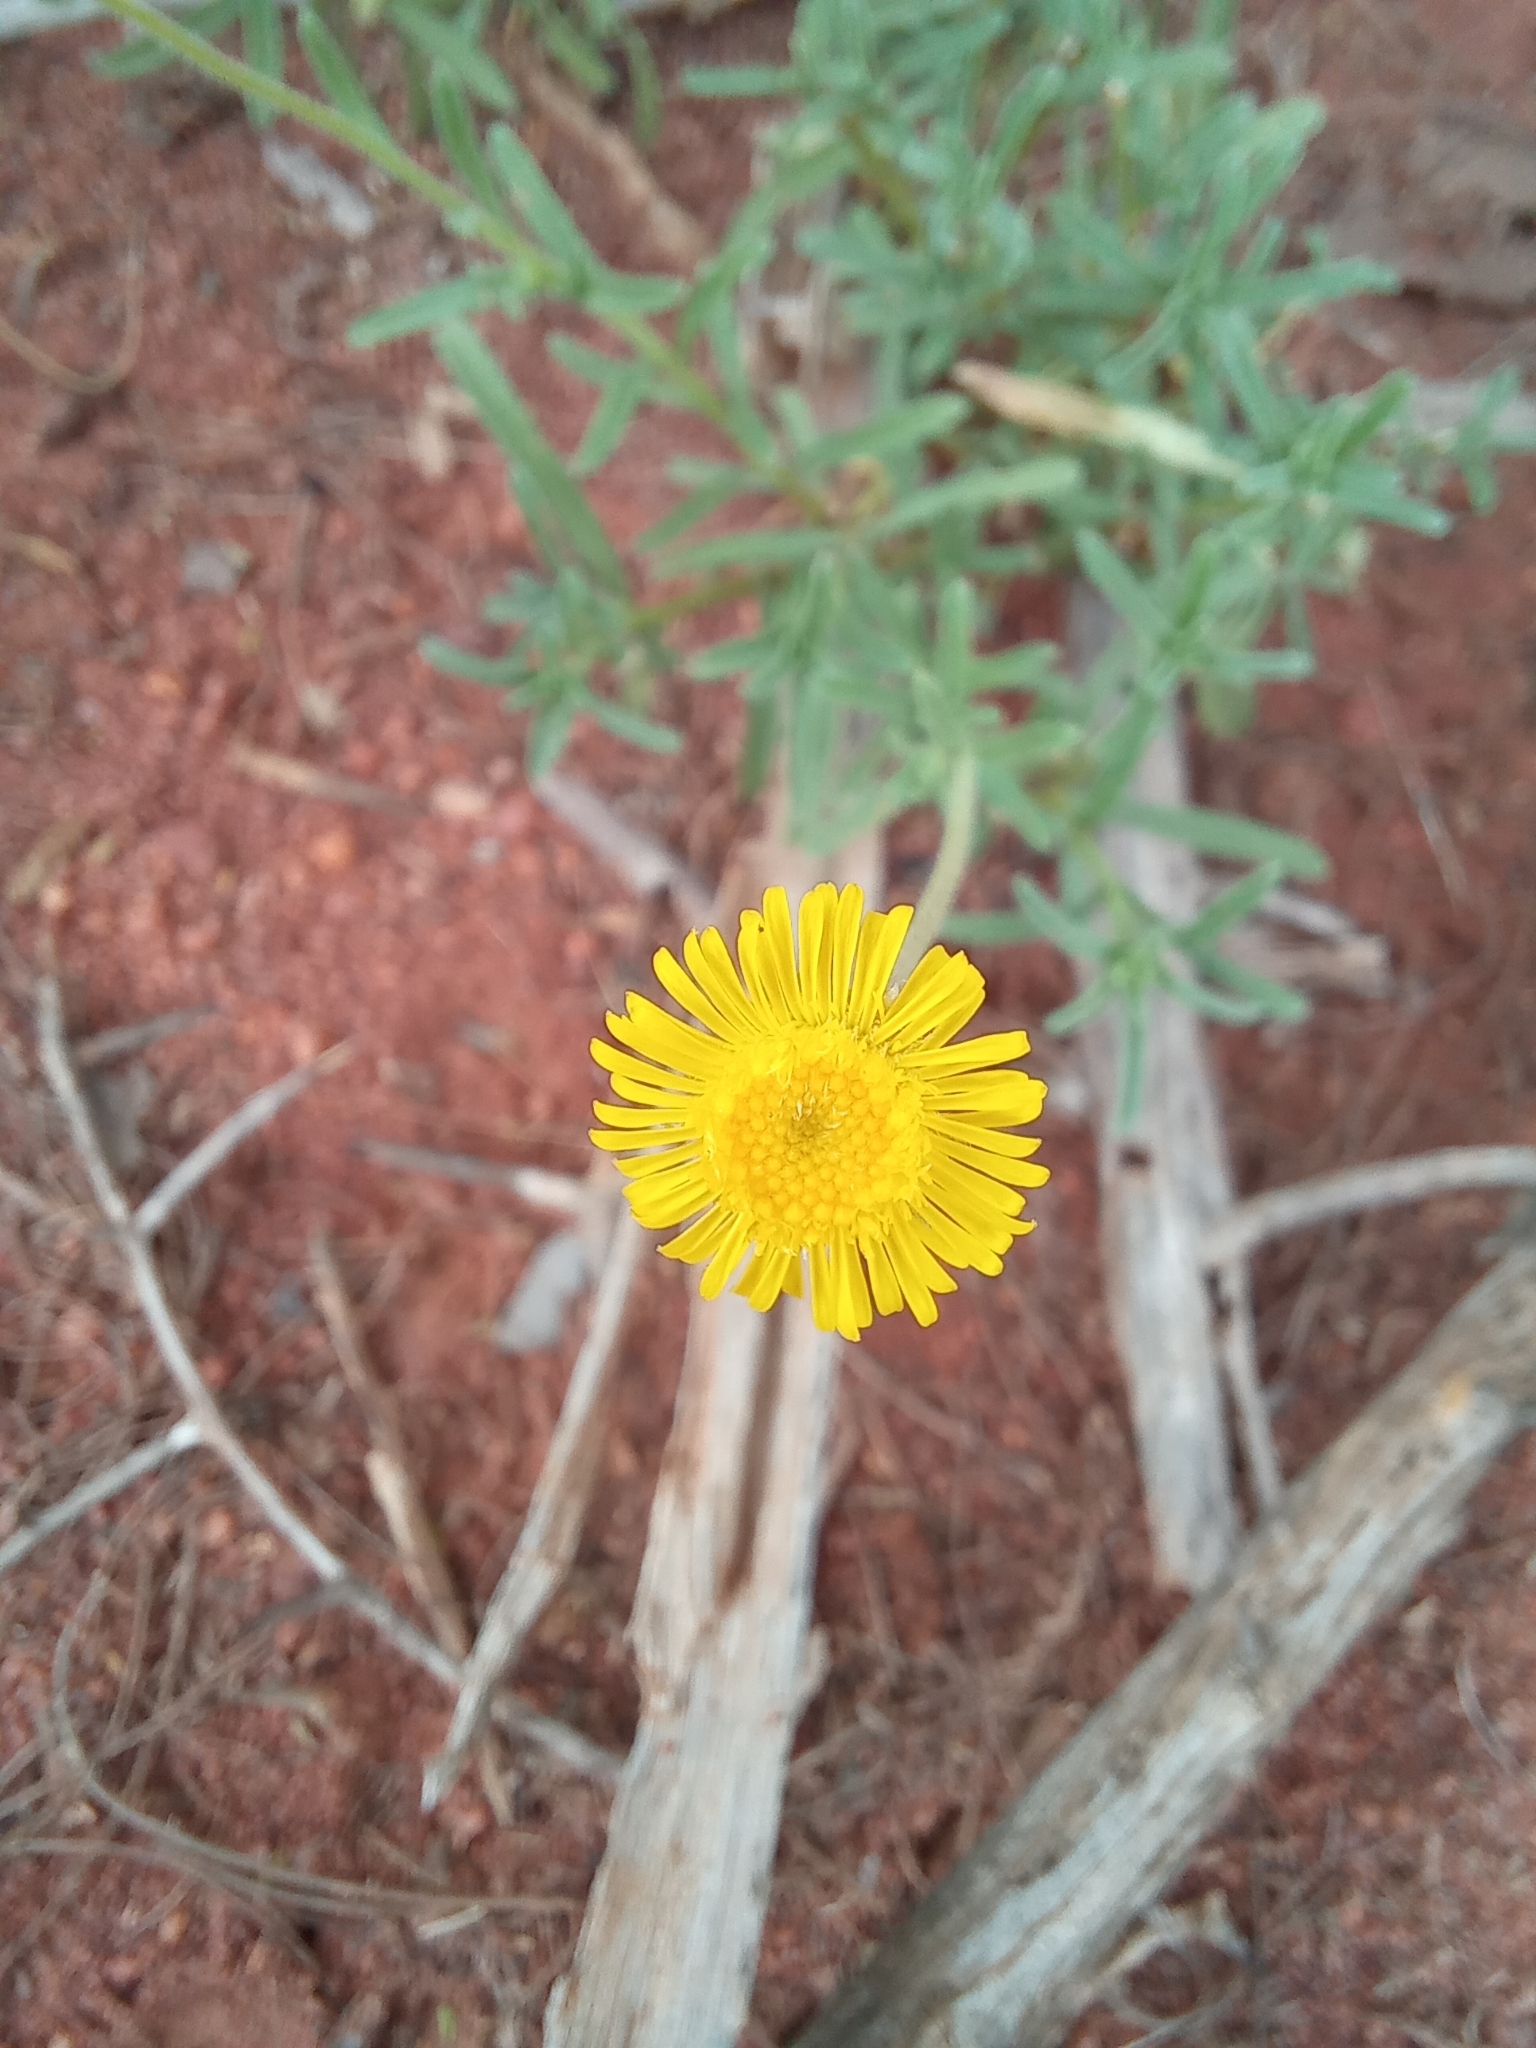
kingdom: Plantae
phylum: Tracheophyta
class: Magnoliopsida
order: Asterales
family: Asteraceae
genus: Felicia
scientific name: Felicia mossamedensis
